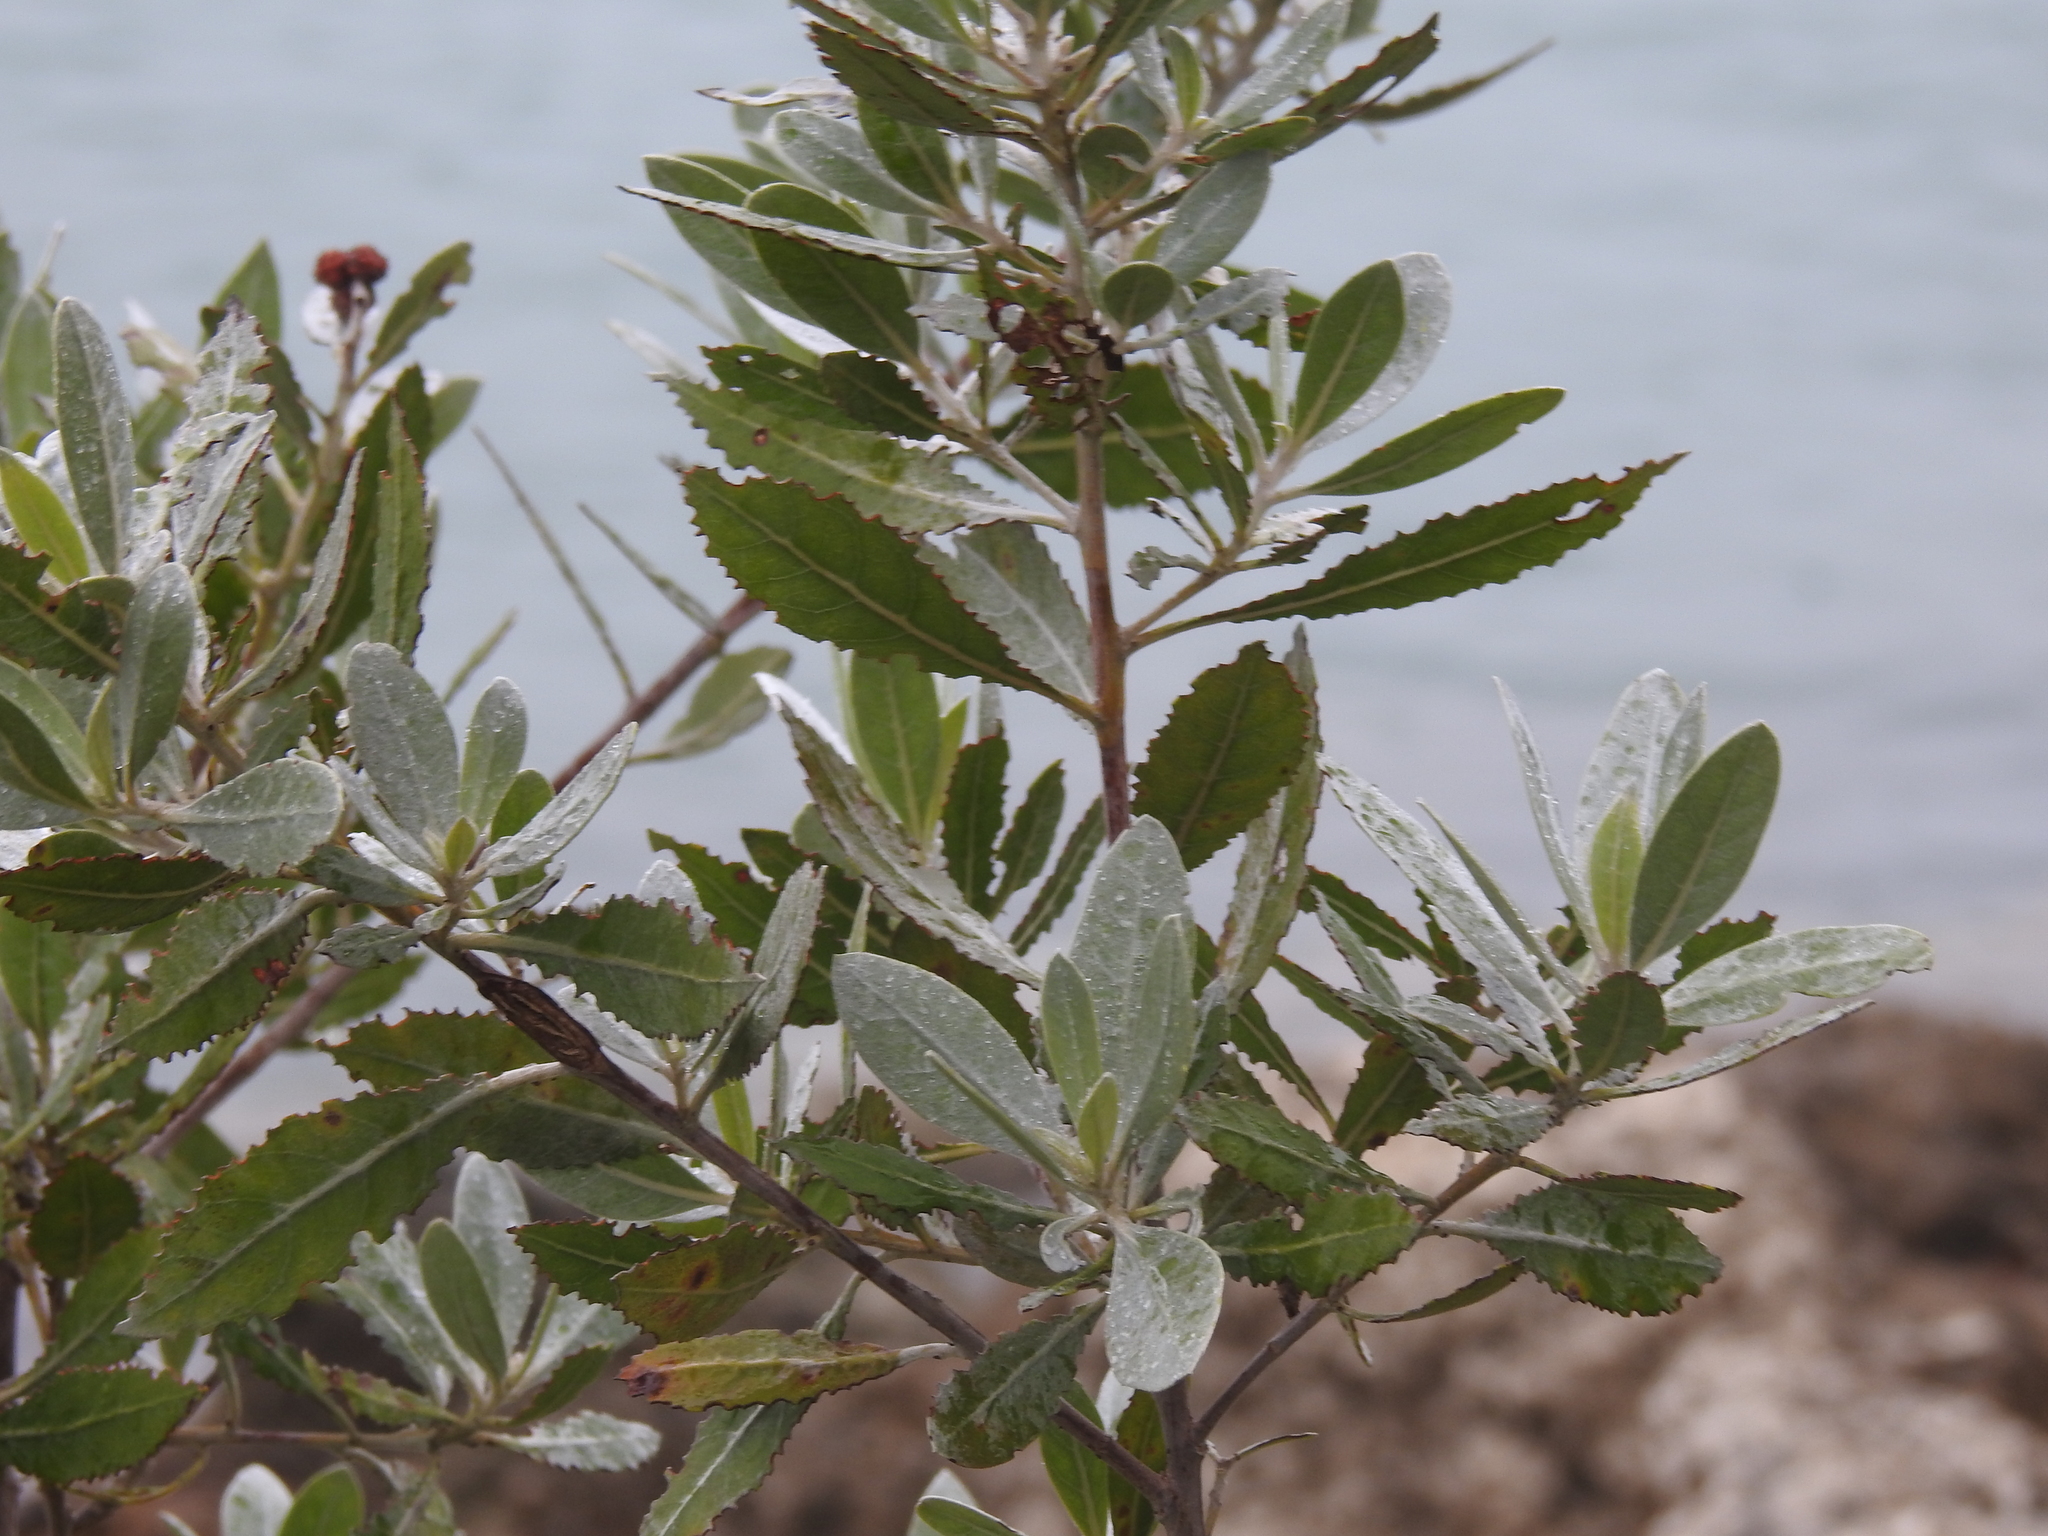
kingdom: Plantae
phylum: Tracheophyta
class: Magnoliopsida
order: Myrtales
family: Combretaceae
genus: Conocarpus
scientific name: Conocarpus erectus
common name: Button mangrove
